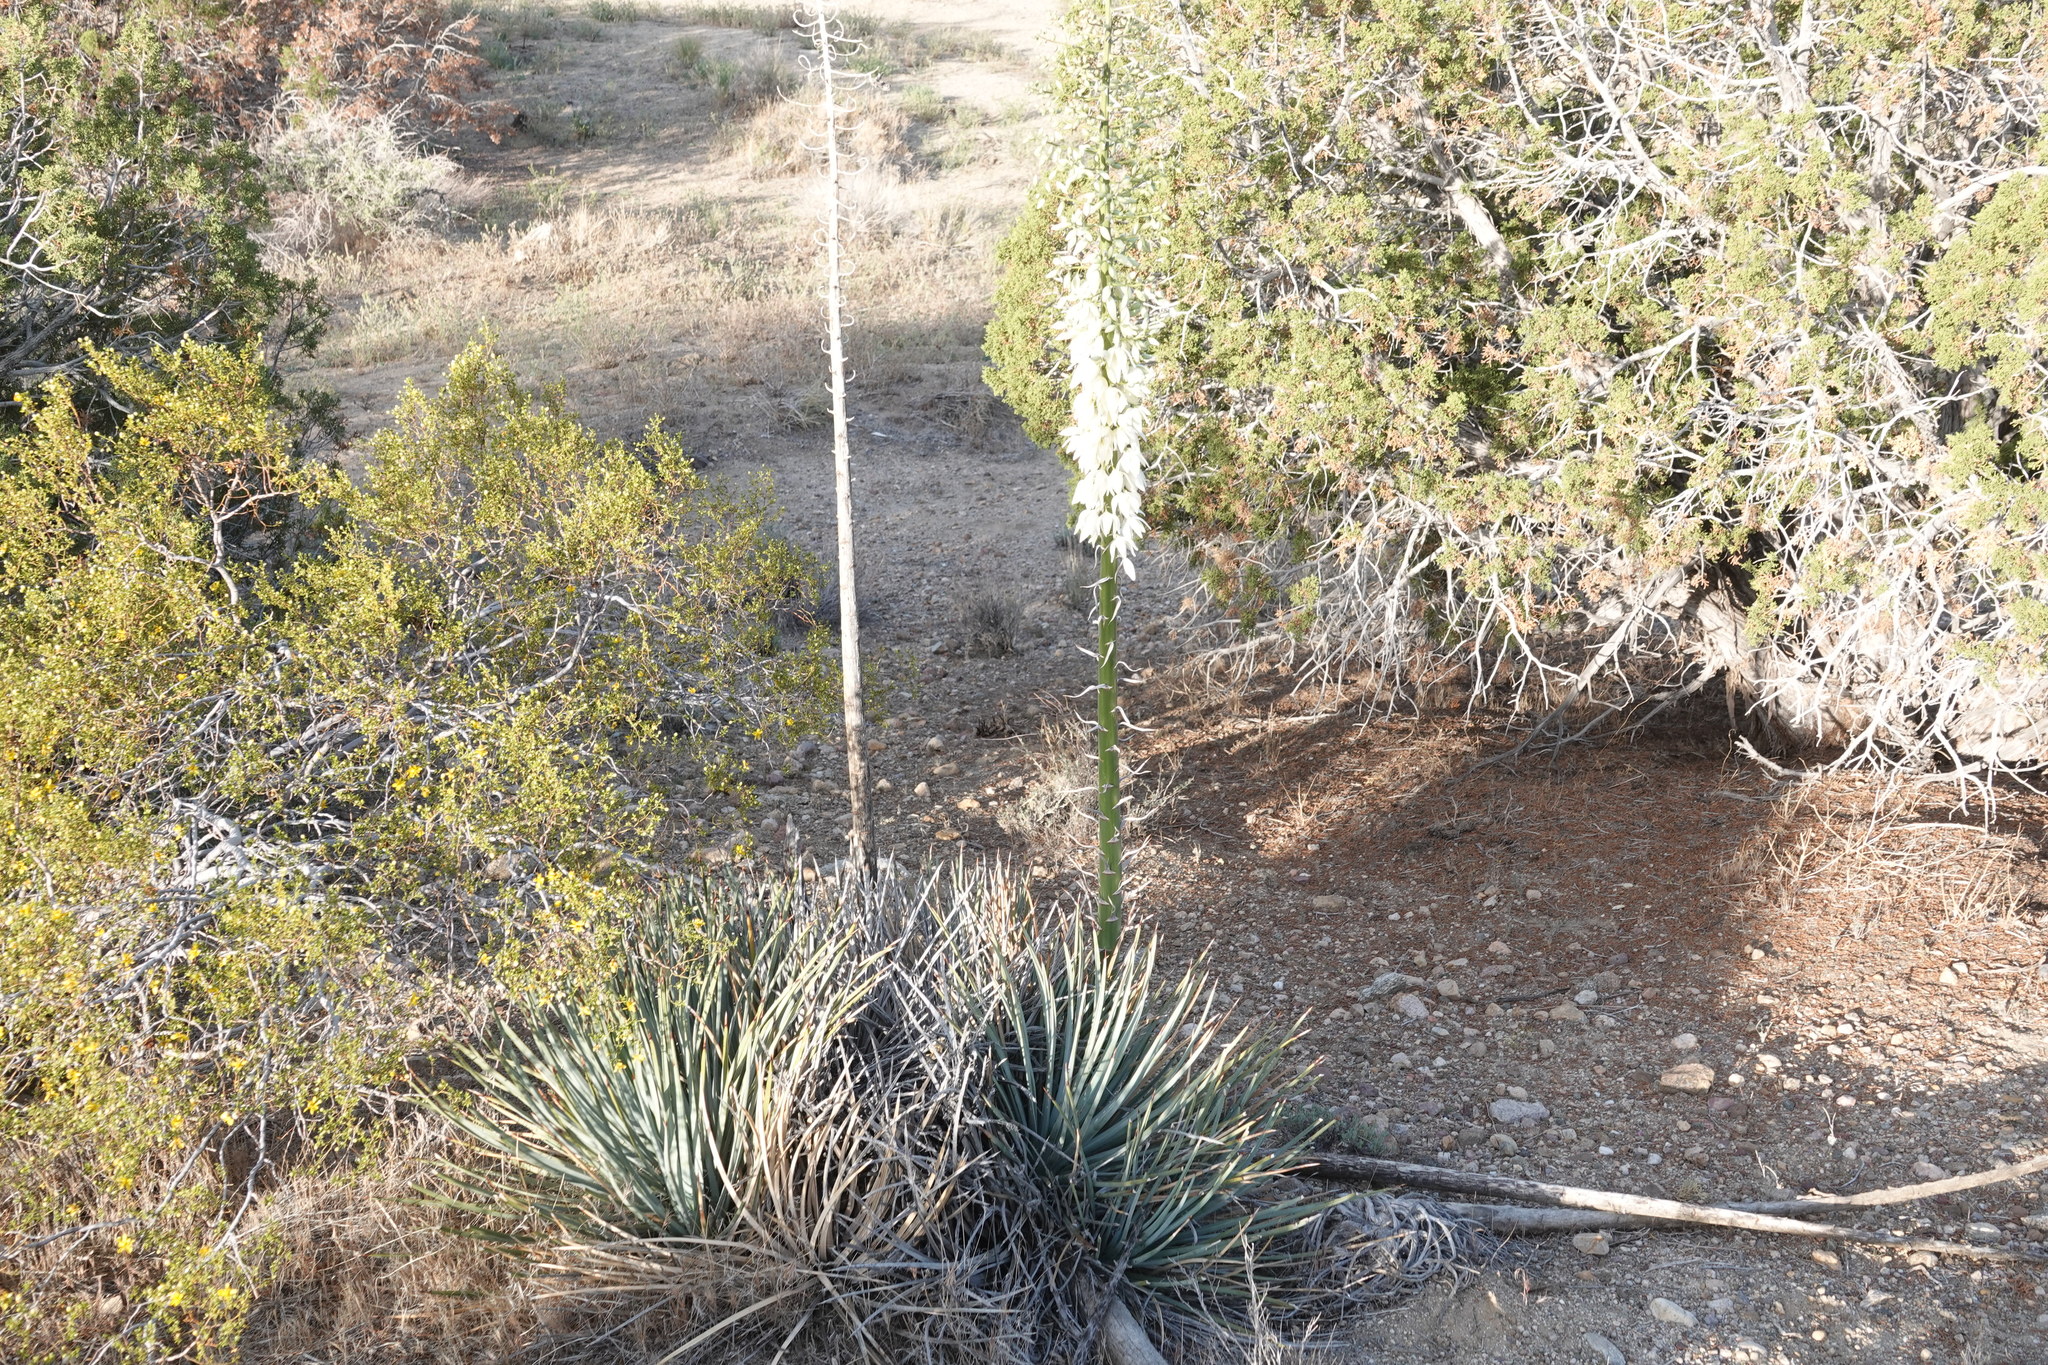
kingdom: Plantae
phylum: Tracheophyta
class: Liliopsida
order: Asparagales
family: Asparagaceae
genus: Hesperoyucca
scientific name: Hesperoyucca whipplei
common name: Our lord's-candle
